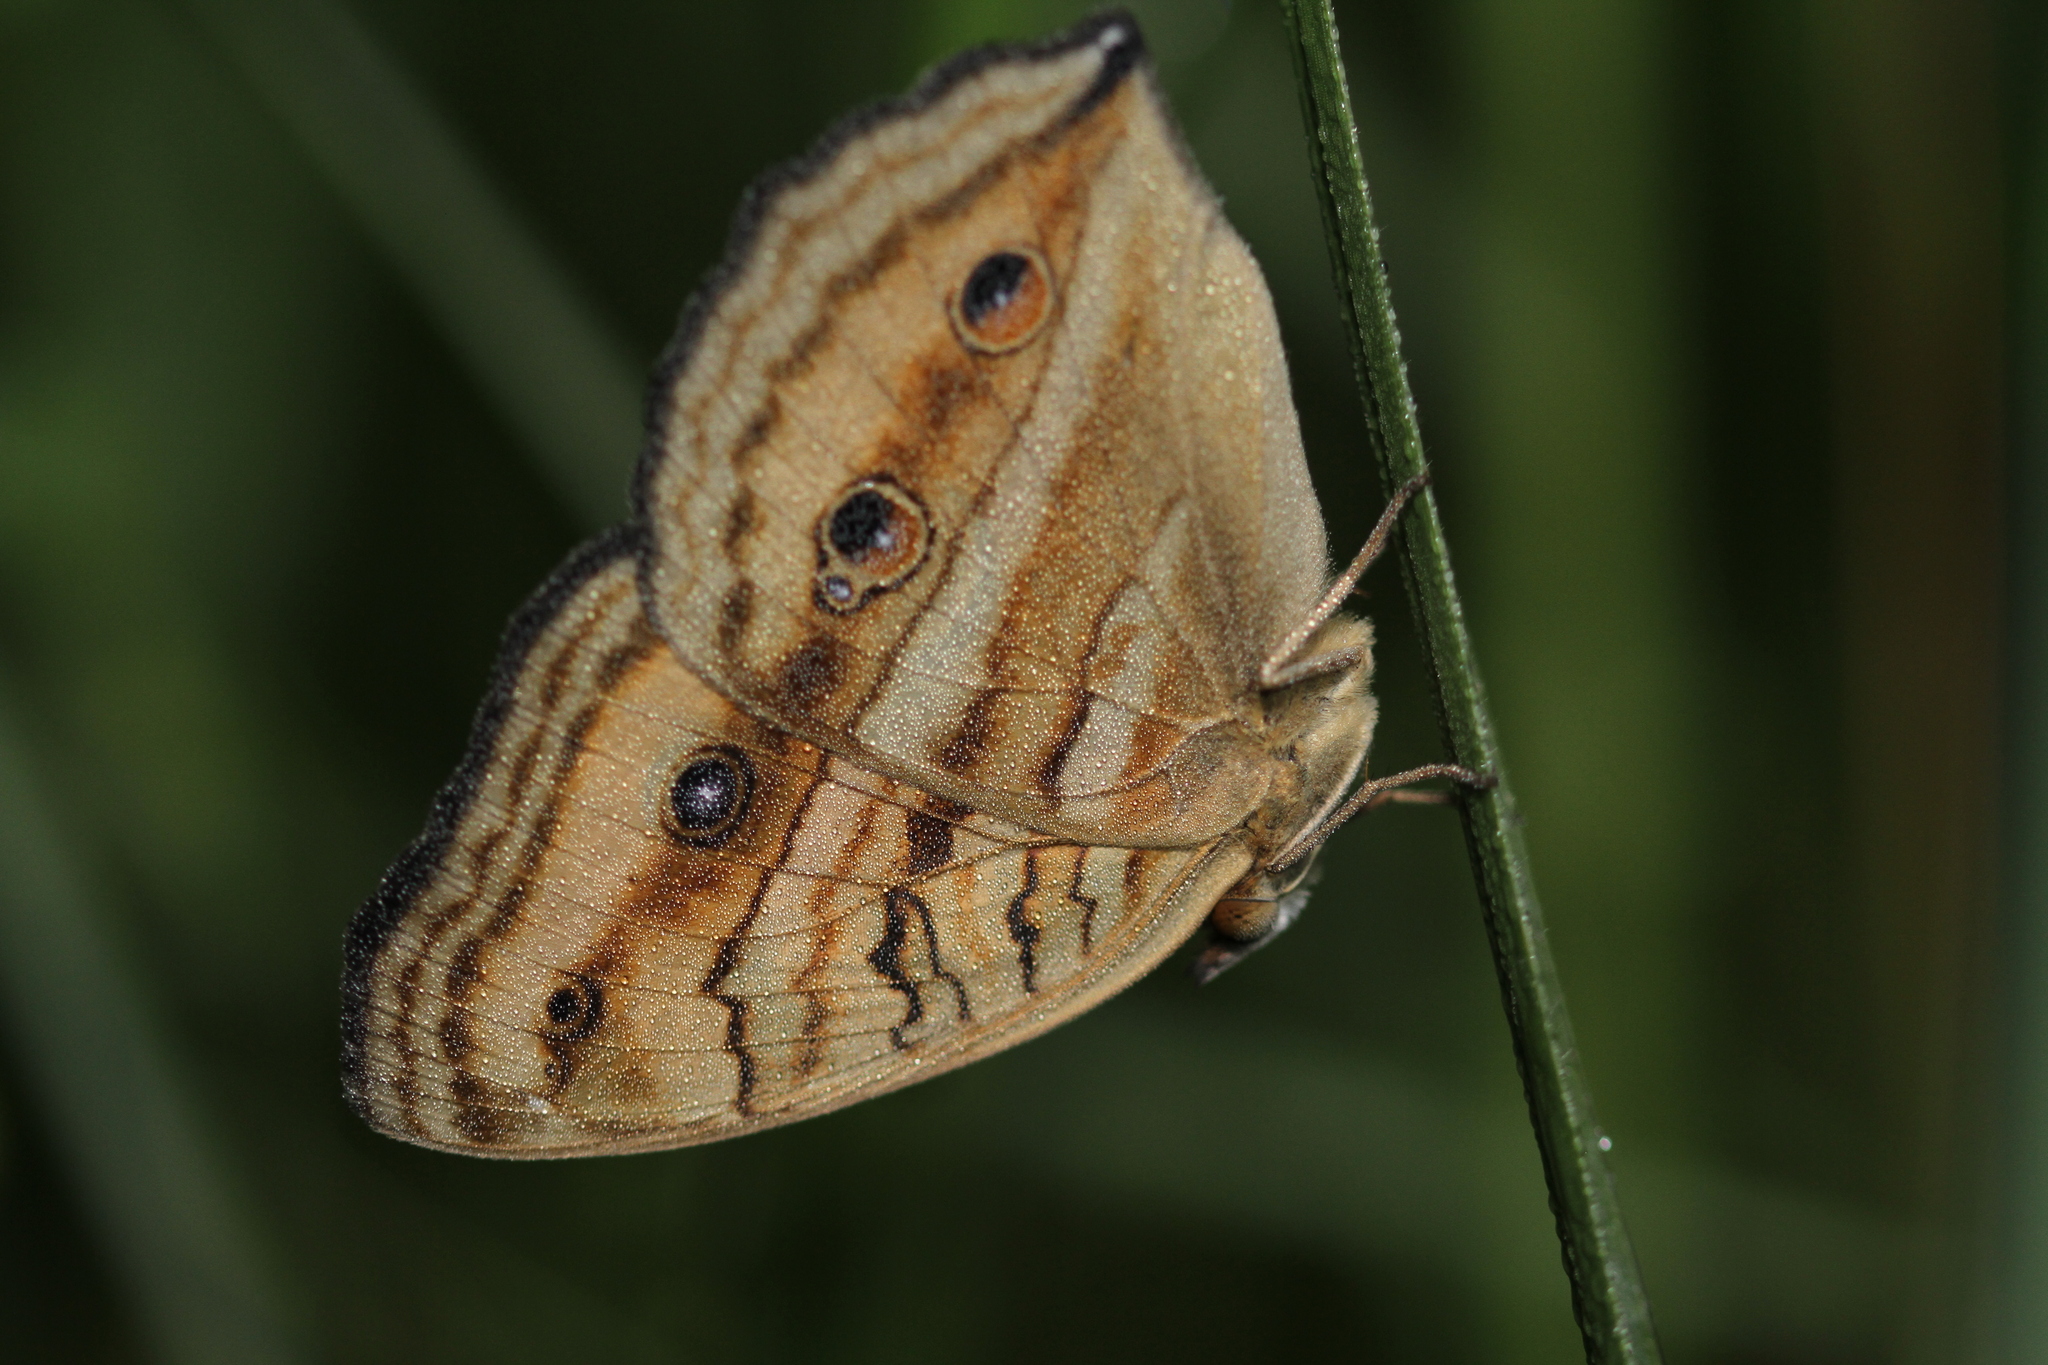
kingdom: Animalia
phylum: Arthropoda
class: Insecta
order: Lepidoptera
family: Nymphalidae
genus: Junonia
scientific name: Junonia almana
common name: Peacock pansy
